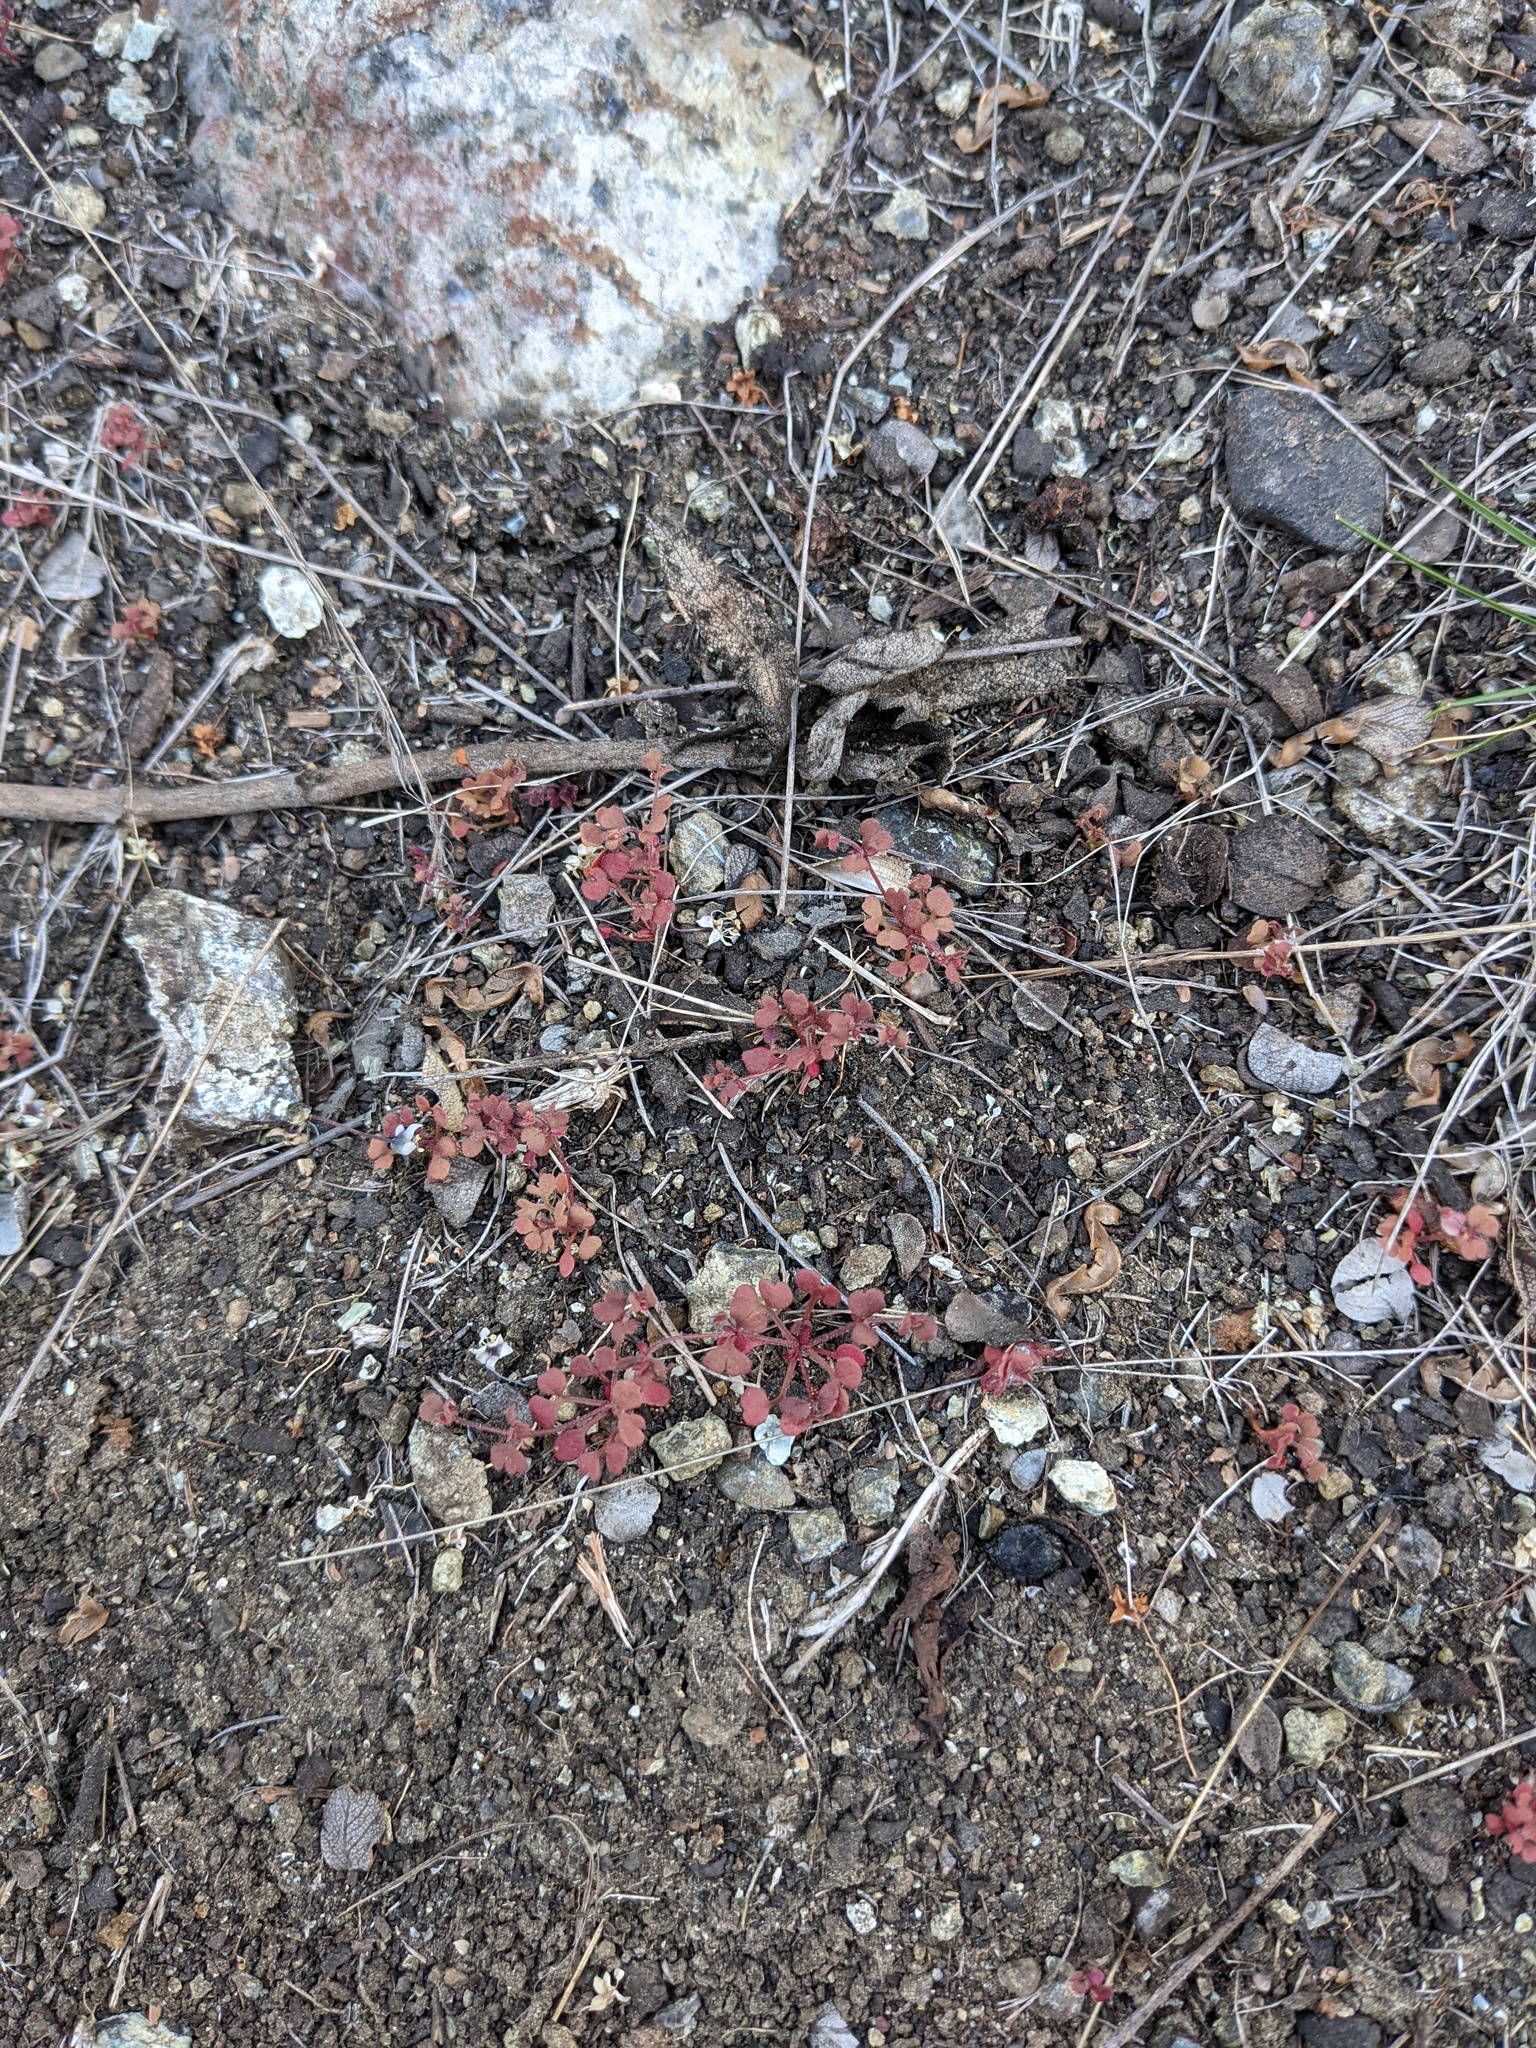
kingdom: Plantae
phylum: Tracheophyta
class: Magnoliopsida
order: Caryophyllales
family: Polygonaceae
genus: Pterostegia
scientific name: Pterostegia drymarioides
